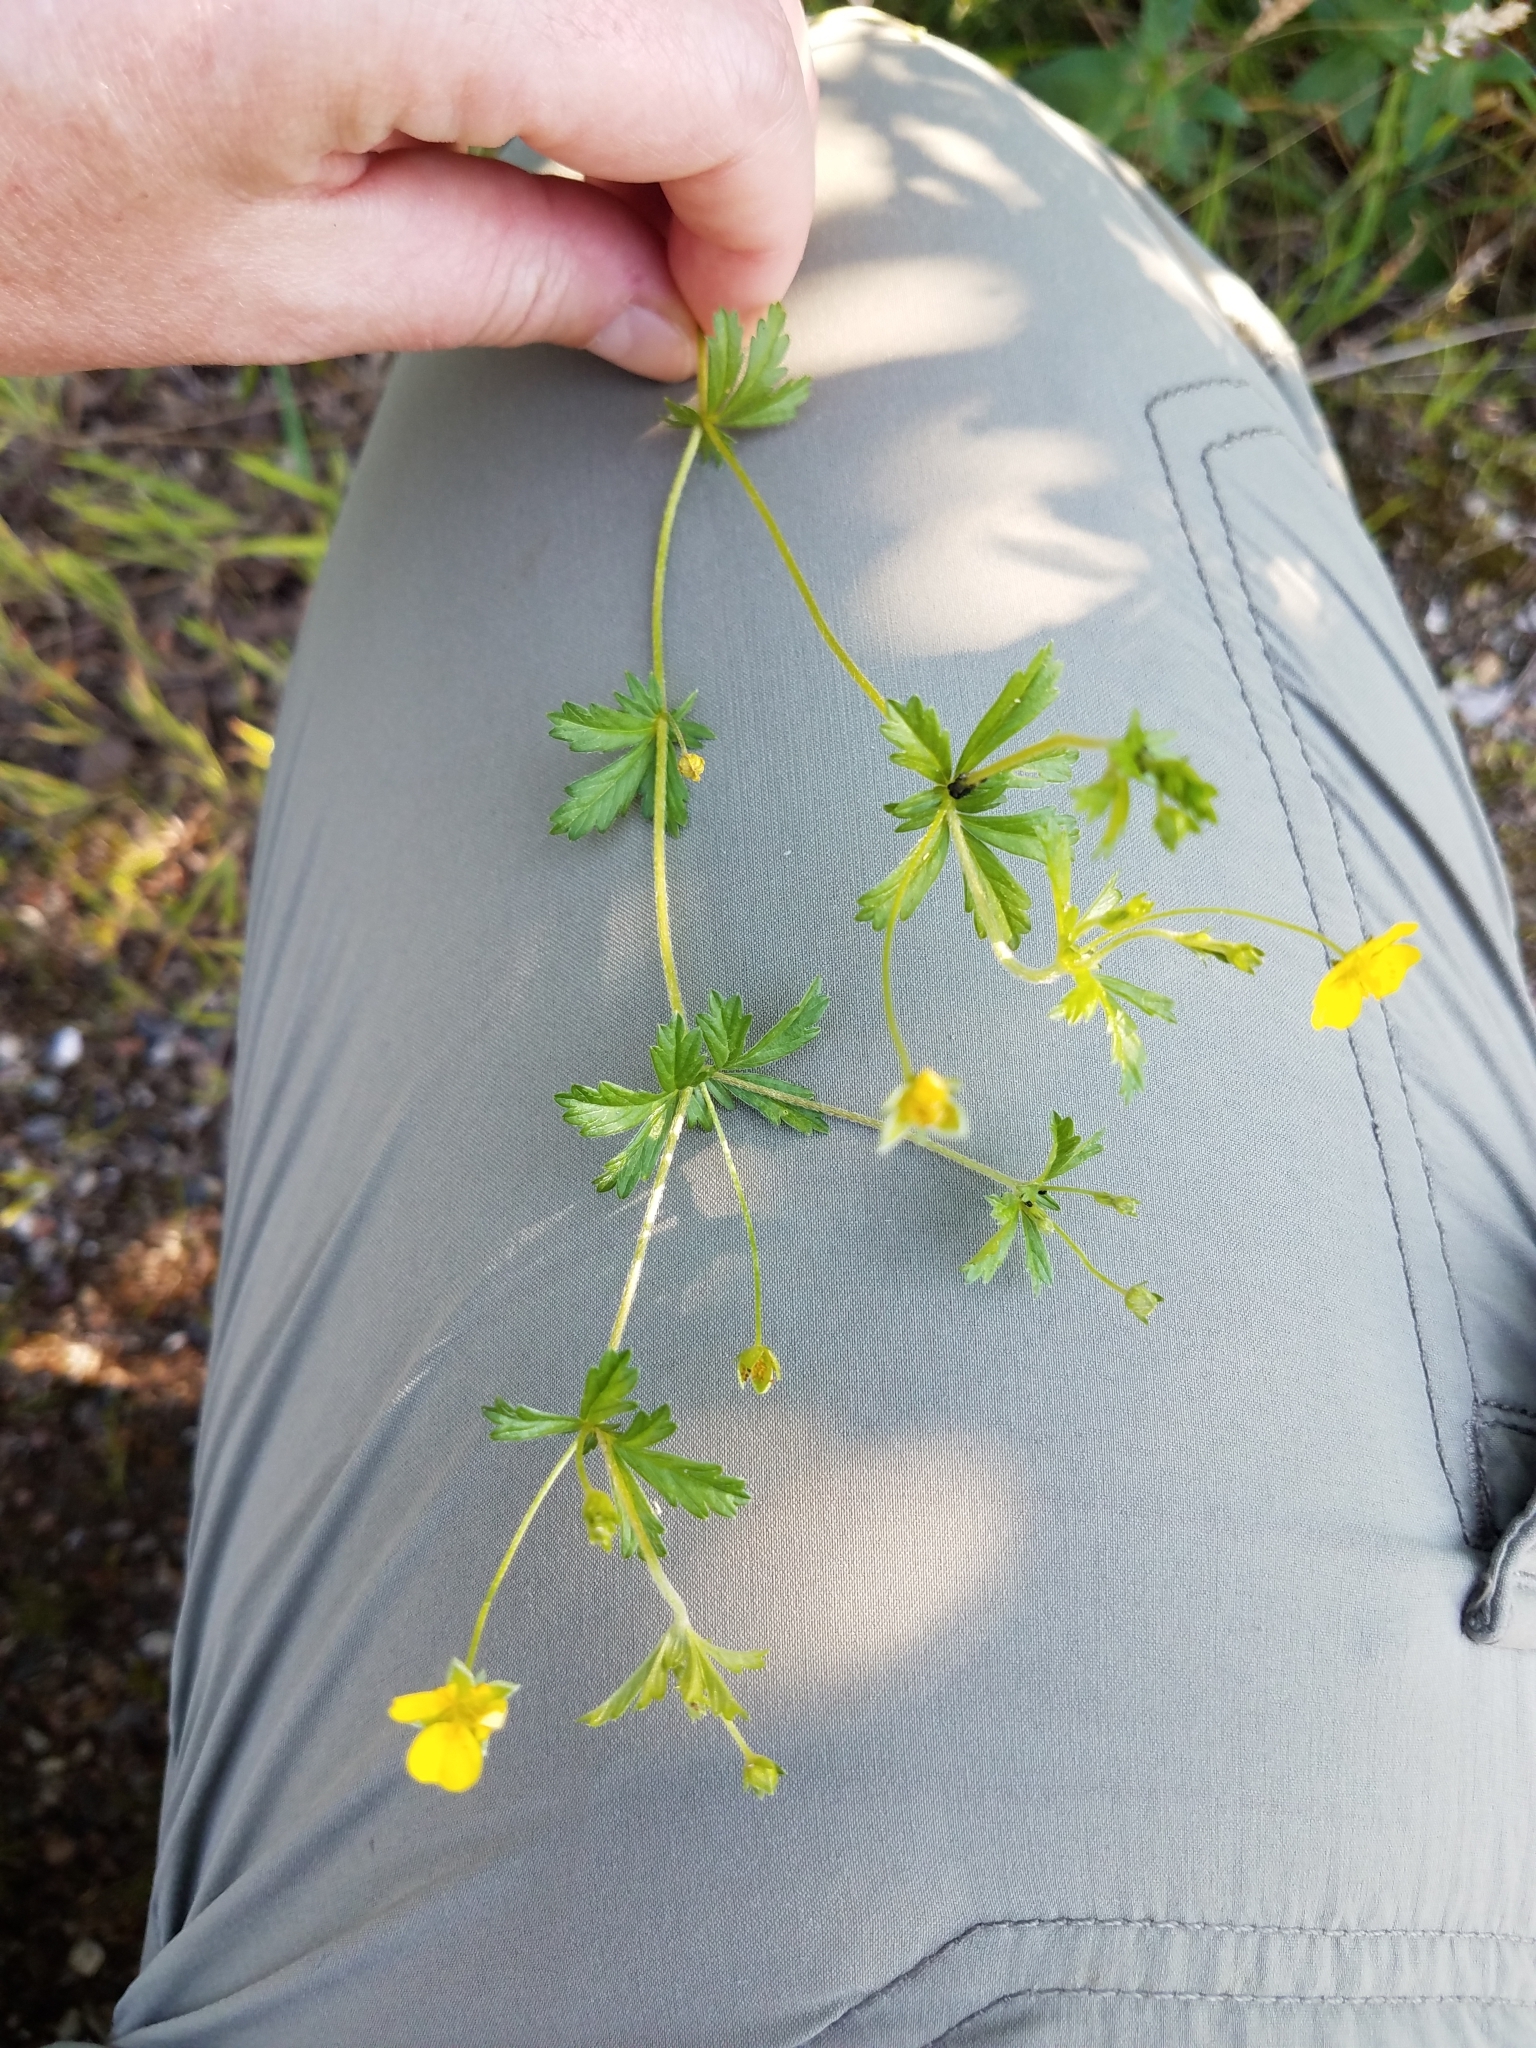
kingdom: Plantae
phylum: Tracheophyta
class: Magnoliopsida
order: Rosales
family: Rosaceae
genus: Potentilla
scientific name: Potentilla erecta
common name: Tormentil
